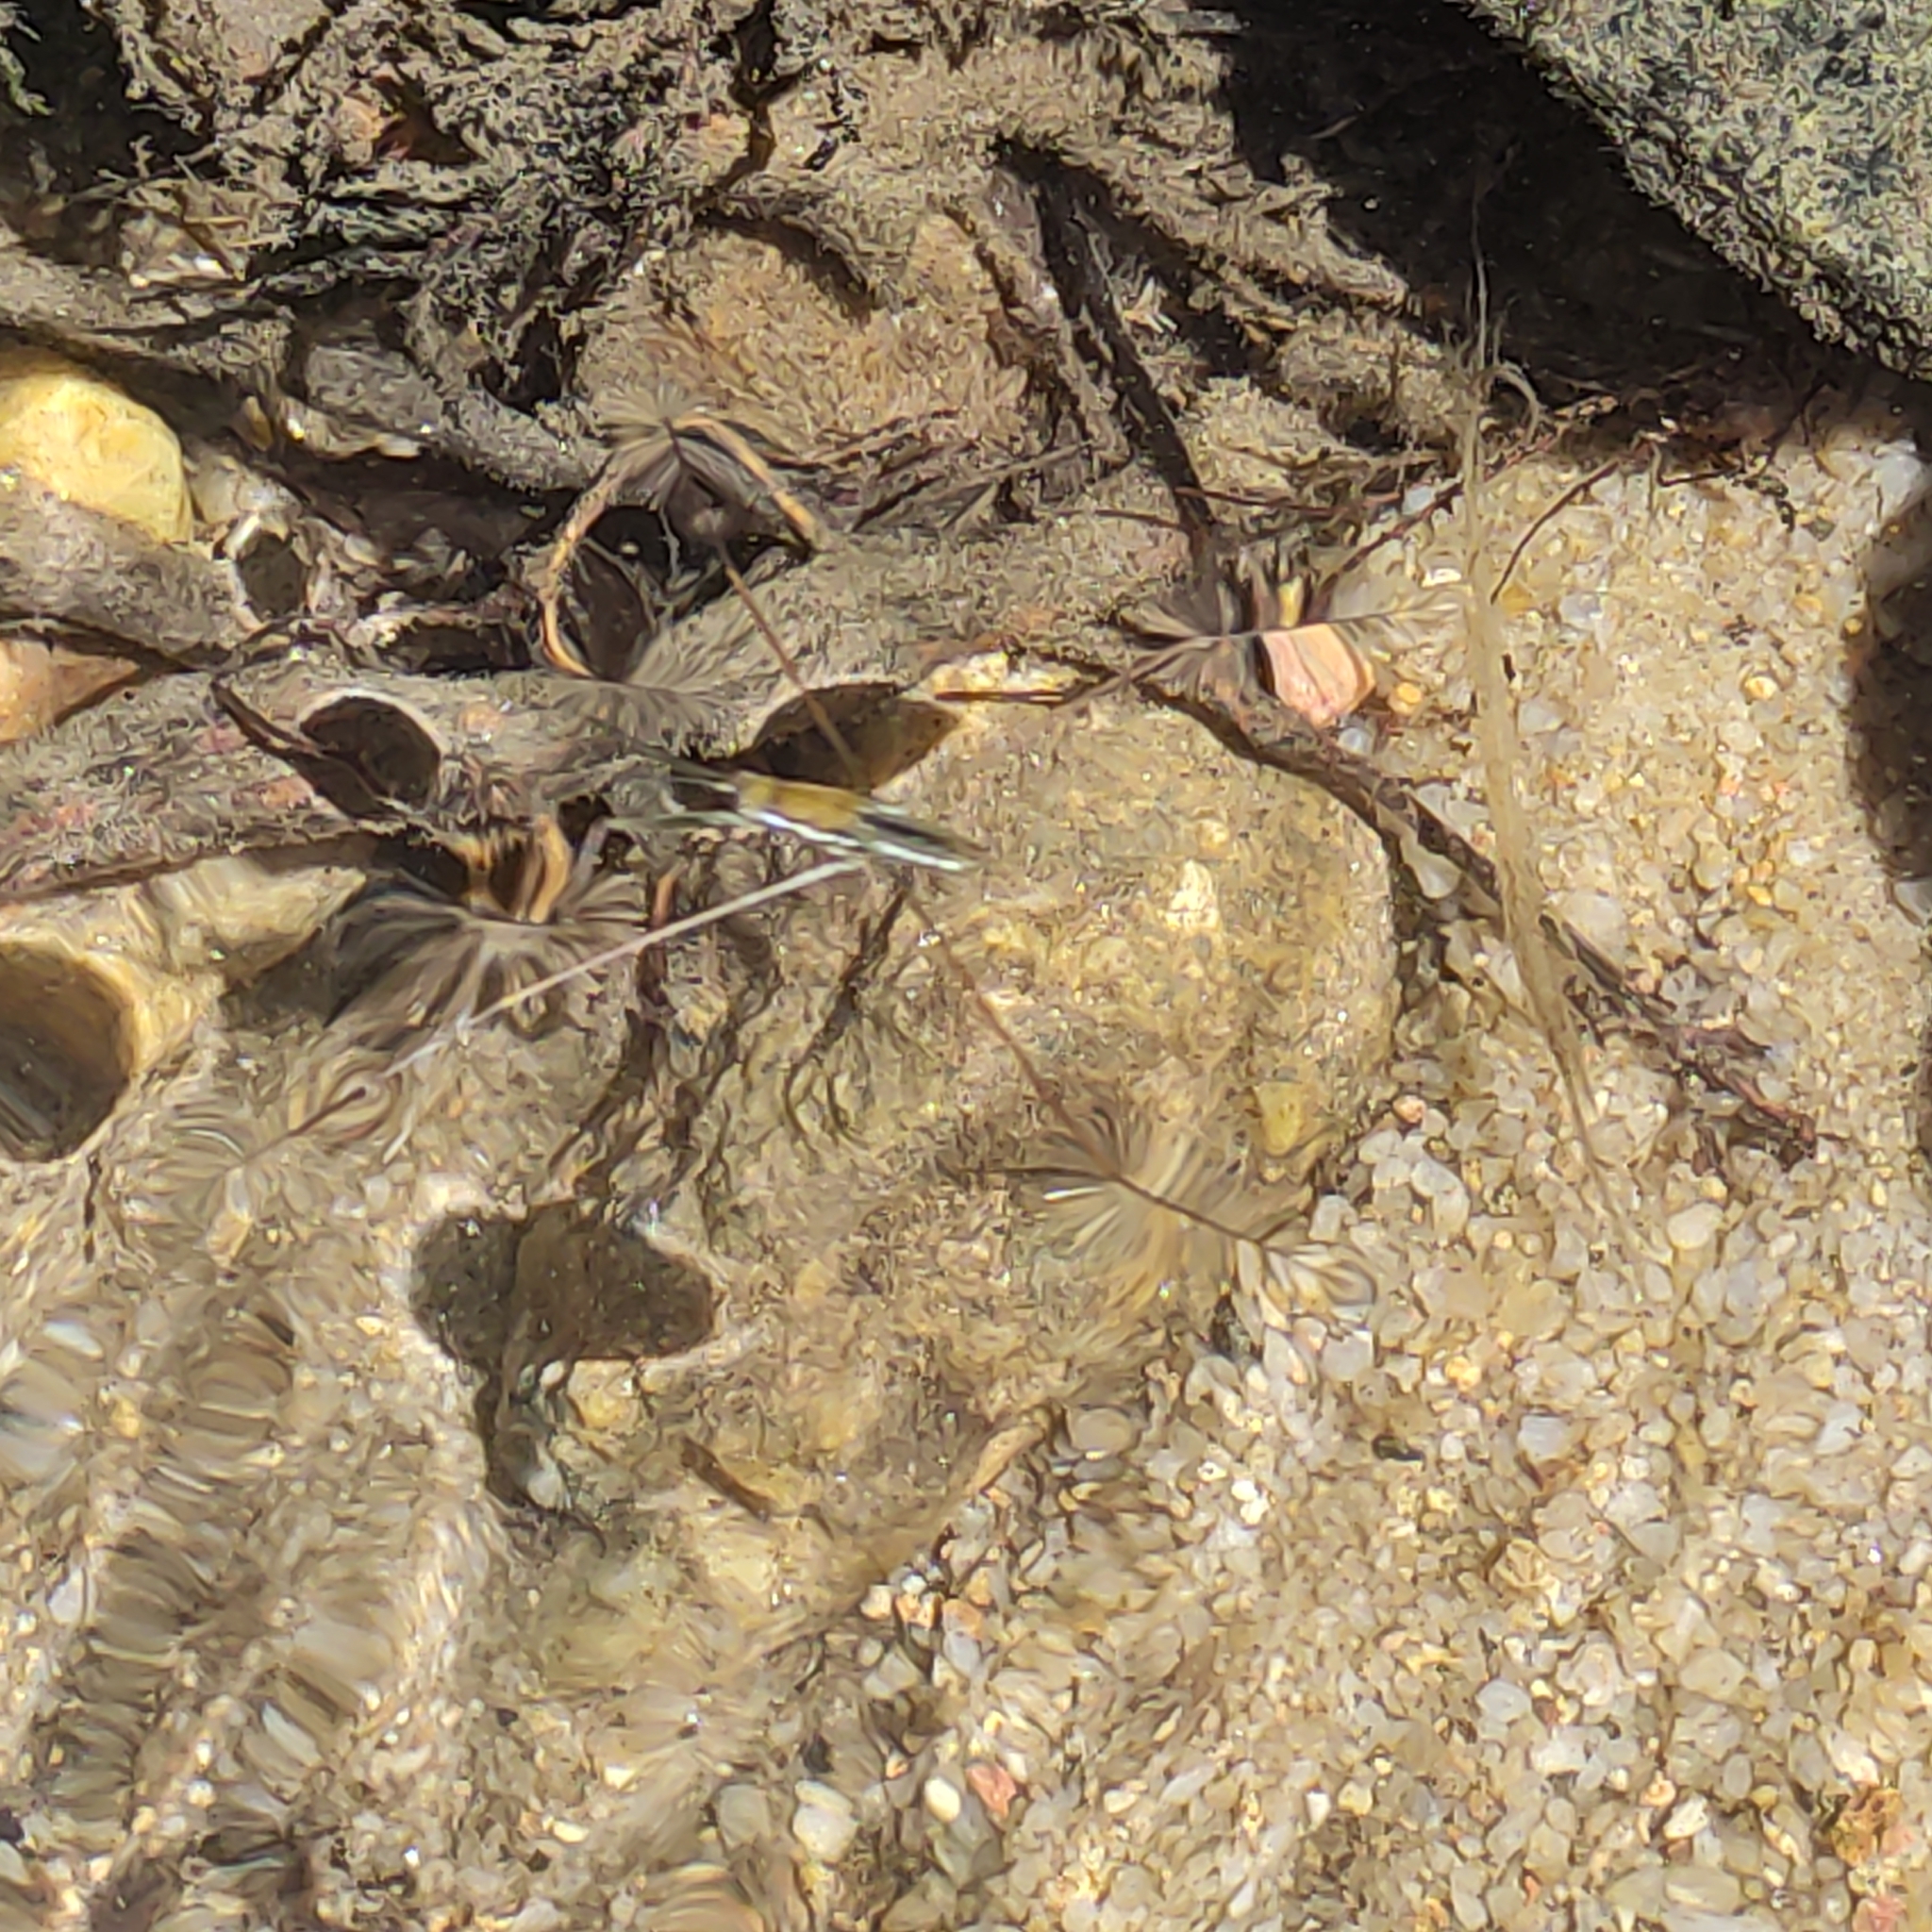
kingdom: Animalia
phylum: Arthropoda
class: Insecta
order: Hemiptera
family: Gerridae
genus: Ptilomera
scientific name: Ptilomera tigrina
